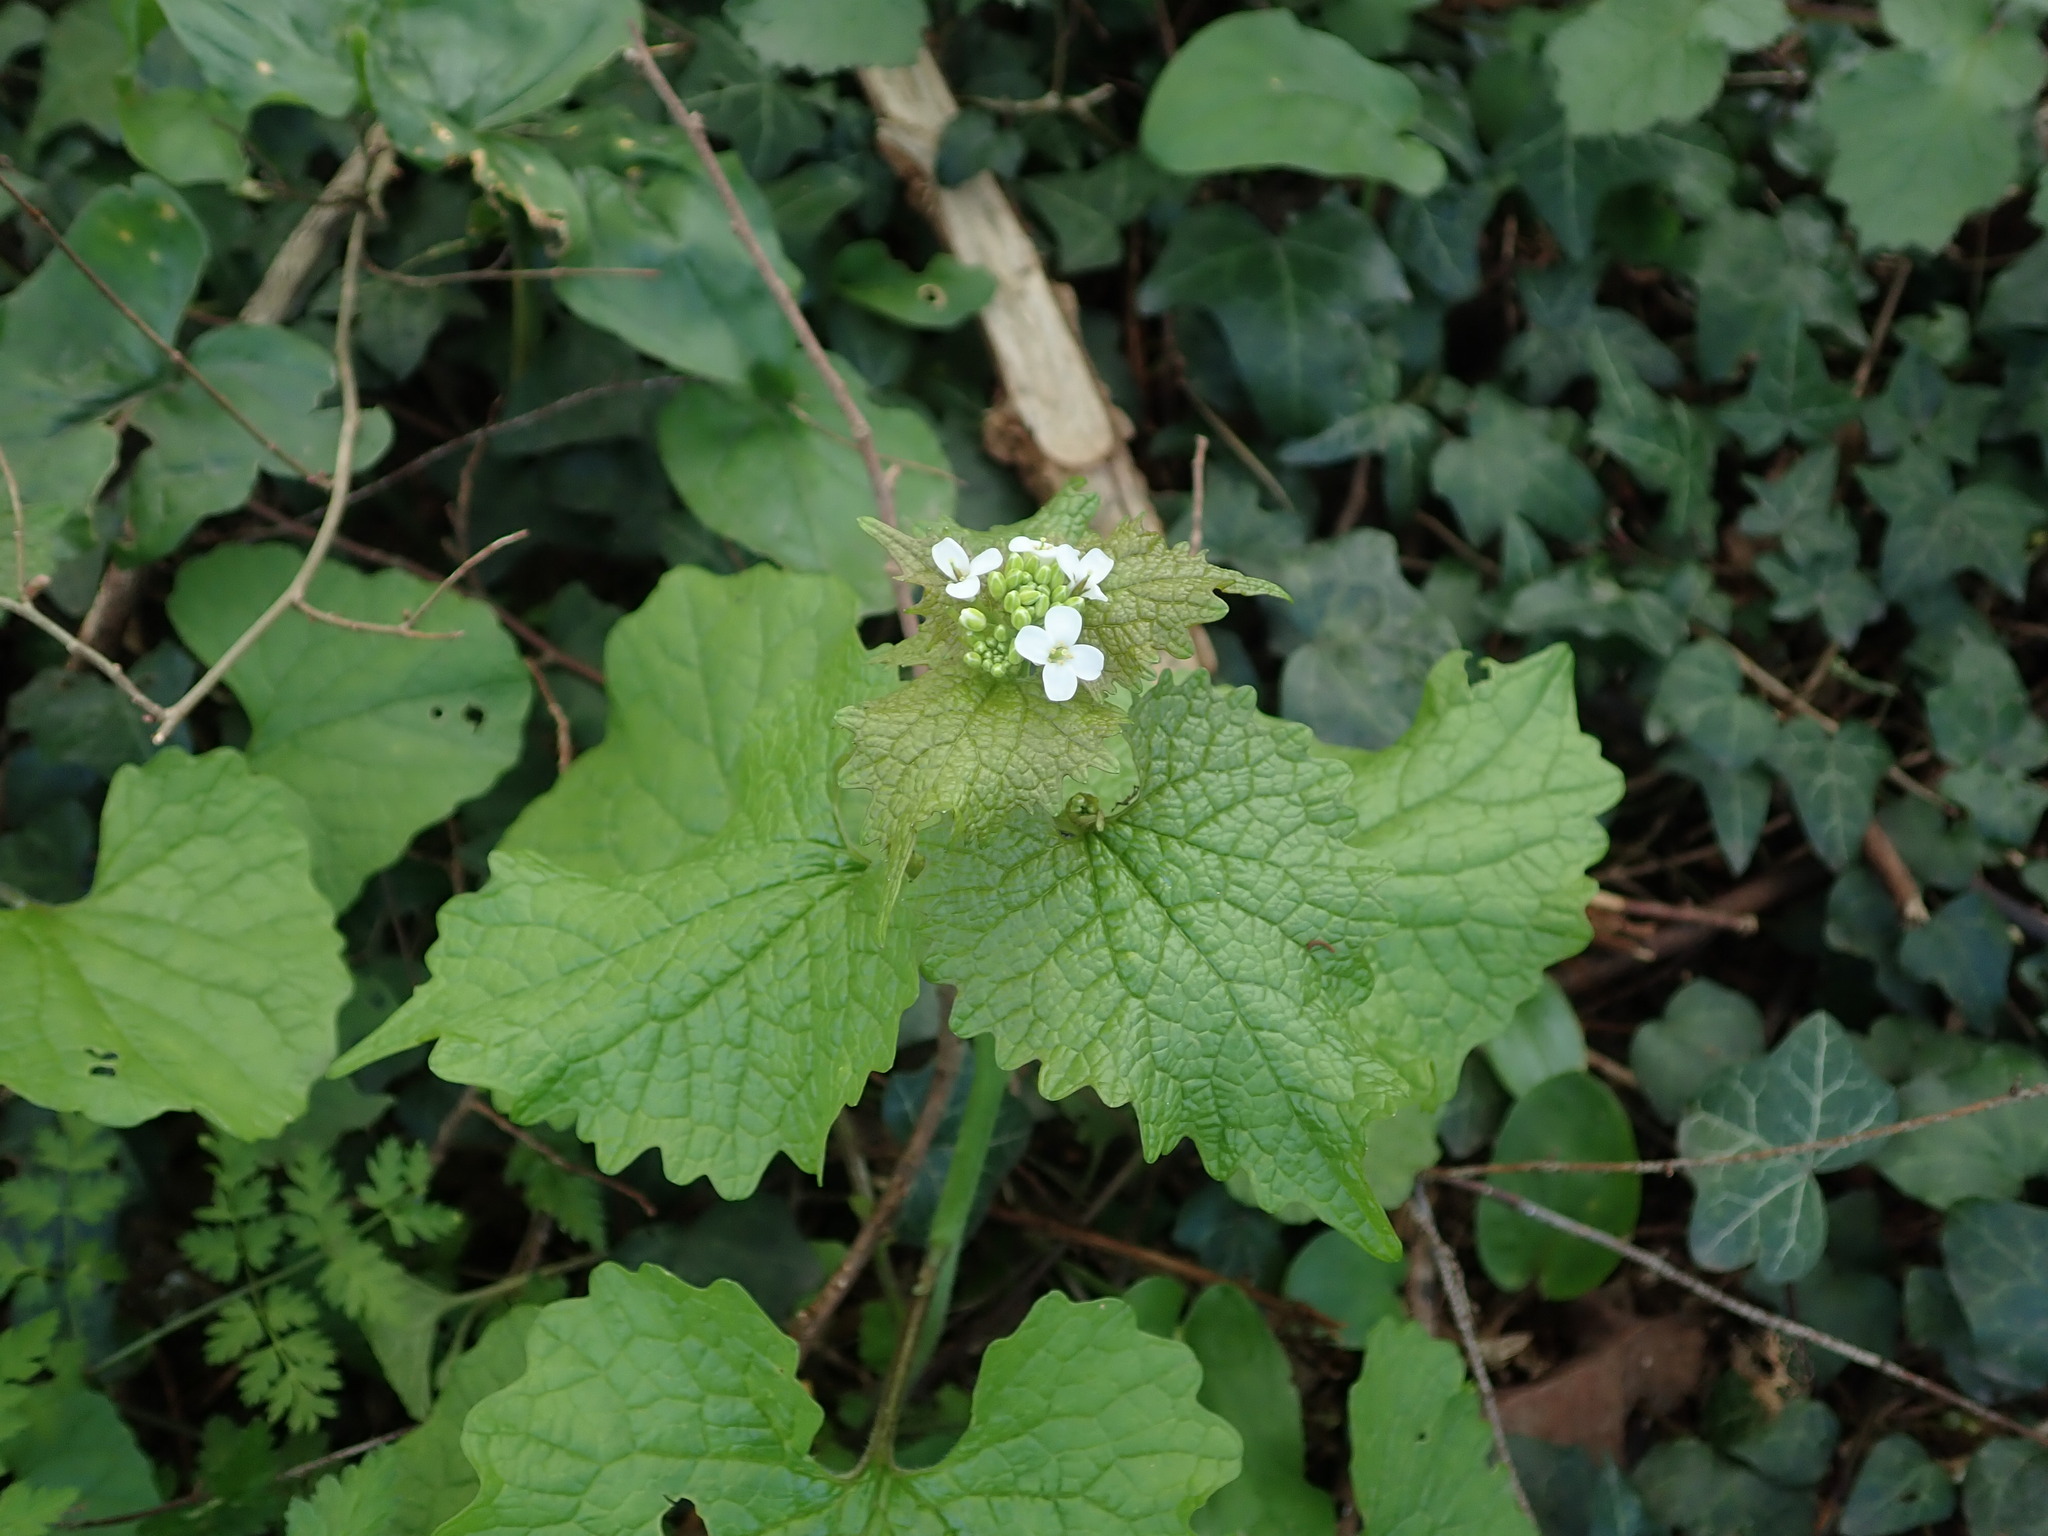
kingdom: Plantae
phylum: Tracheophyta
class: Magnoliopsida
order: Brassicales
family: Brassicaceae
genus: Alliaria
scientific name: Alliaria petiolata
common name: Garlic mustard
